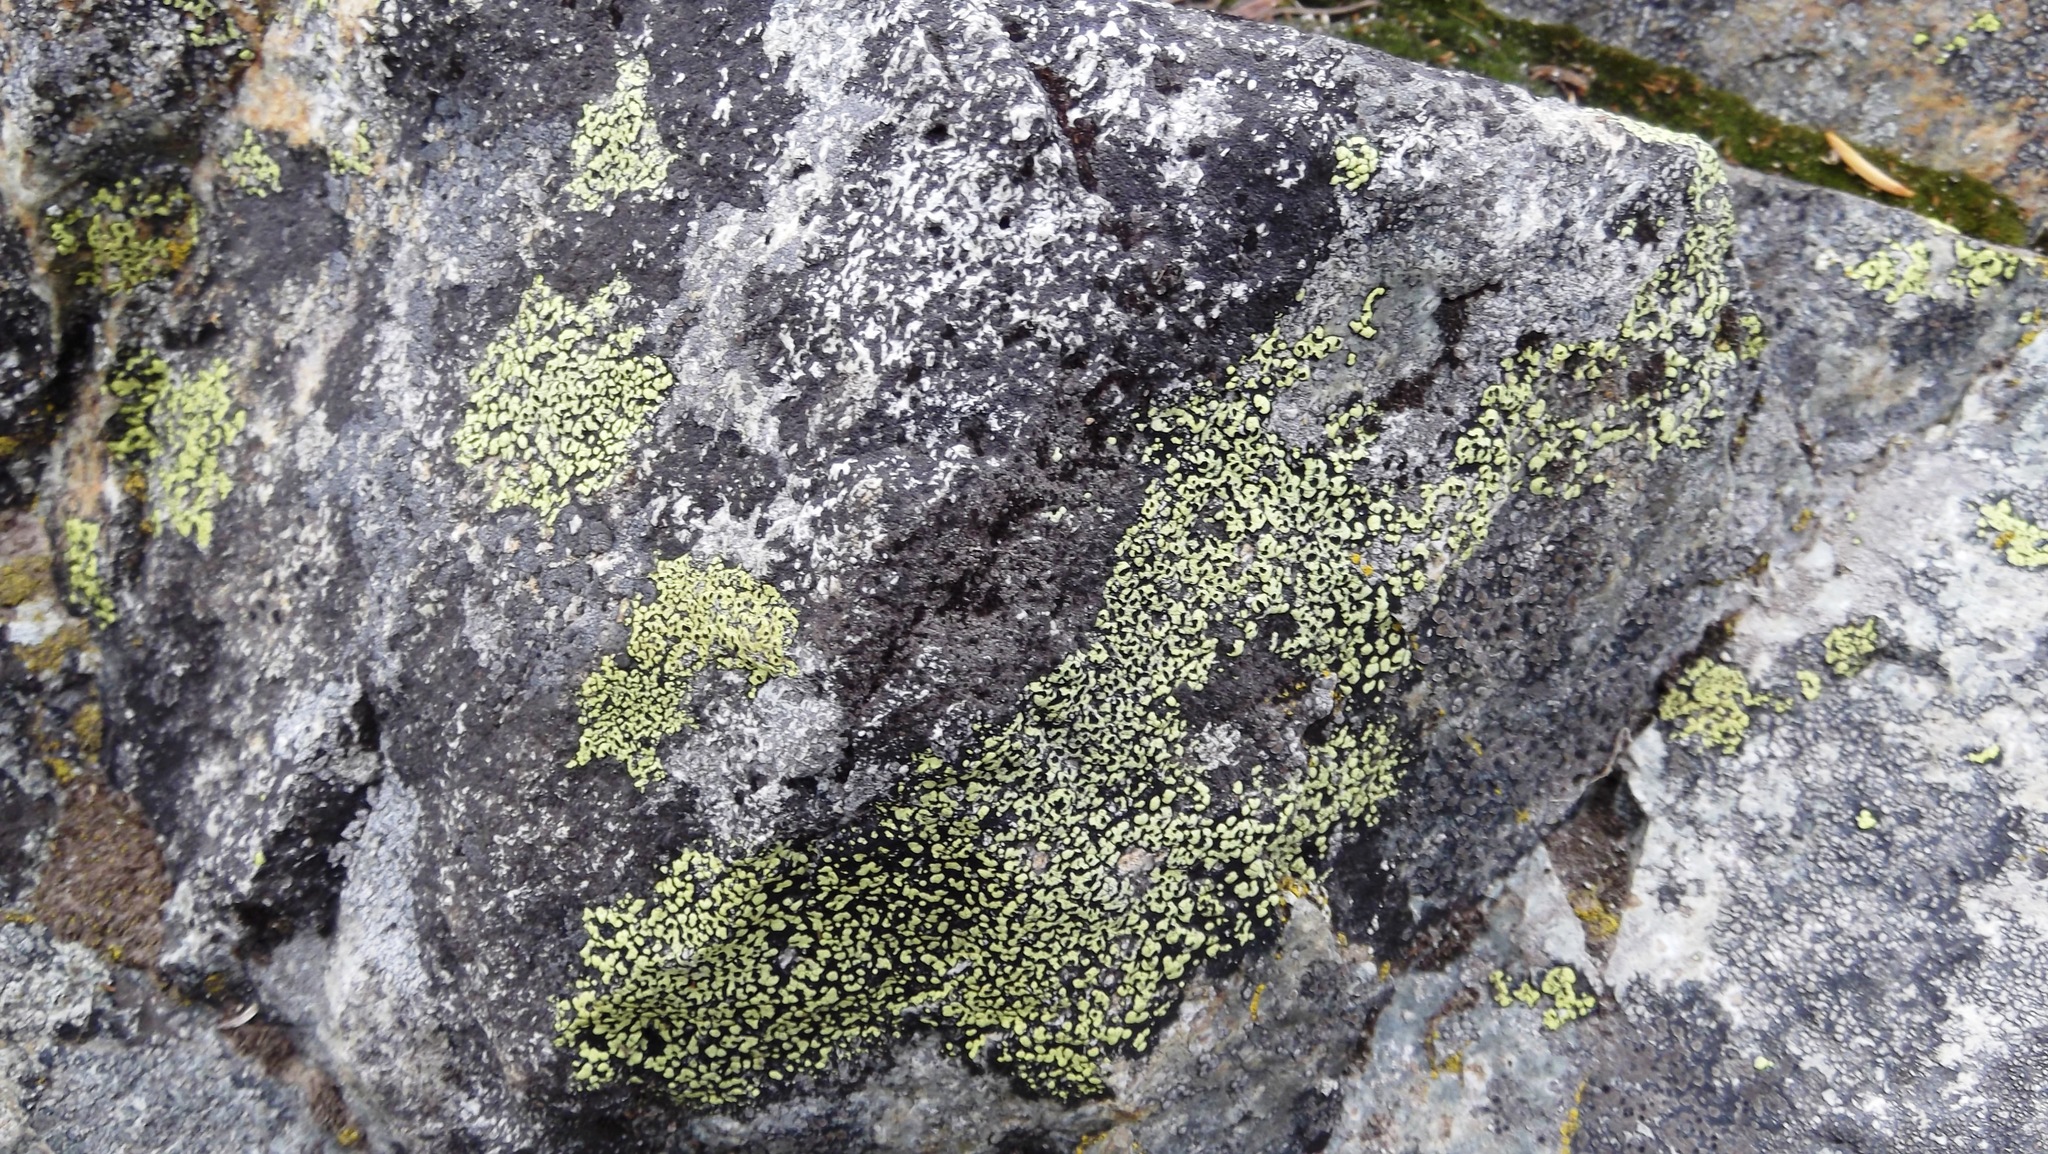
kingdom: Fungi
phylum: Ascomycota
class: Lecanoromycetes
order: Rhizocarpales
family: Rhizocarpaceae
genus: Rhizocarpon
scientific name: Rhizocarpon geographicum
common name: Yellow map lichen
